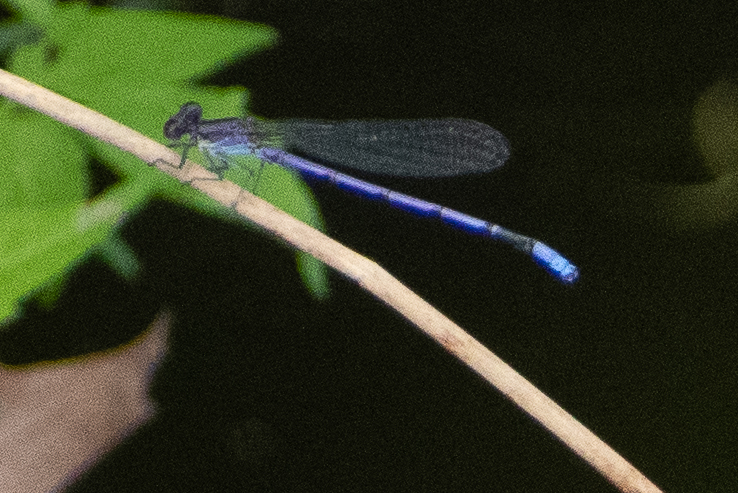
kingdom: Animalia
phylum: Arthropoda
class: Insecta
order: Odonata
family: Coenagrionidae
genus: Argia
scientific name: Argia fumipennis
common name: Variable dancer
